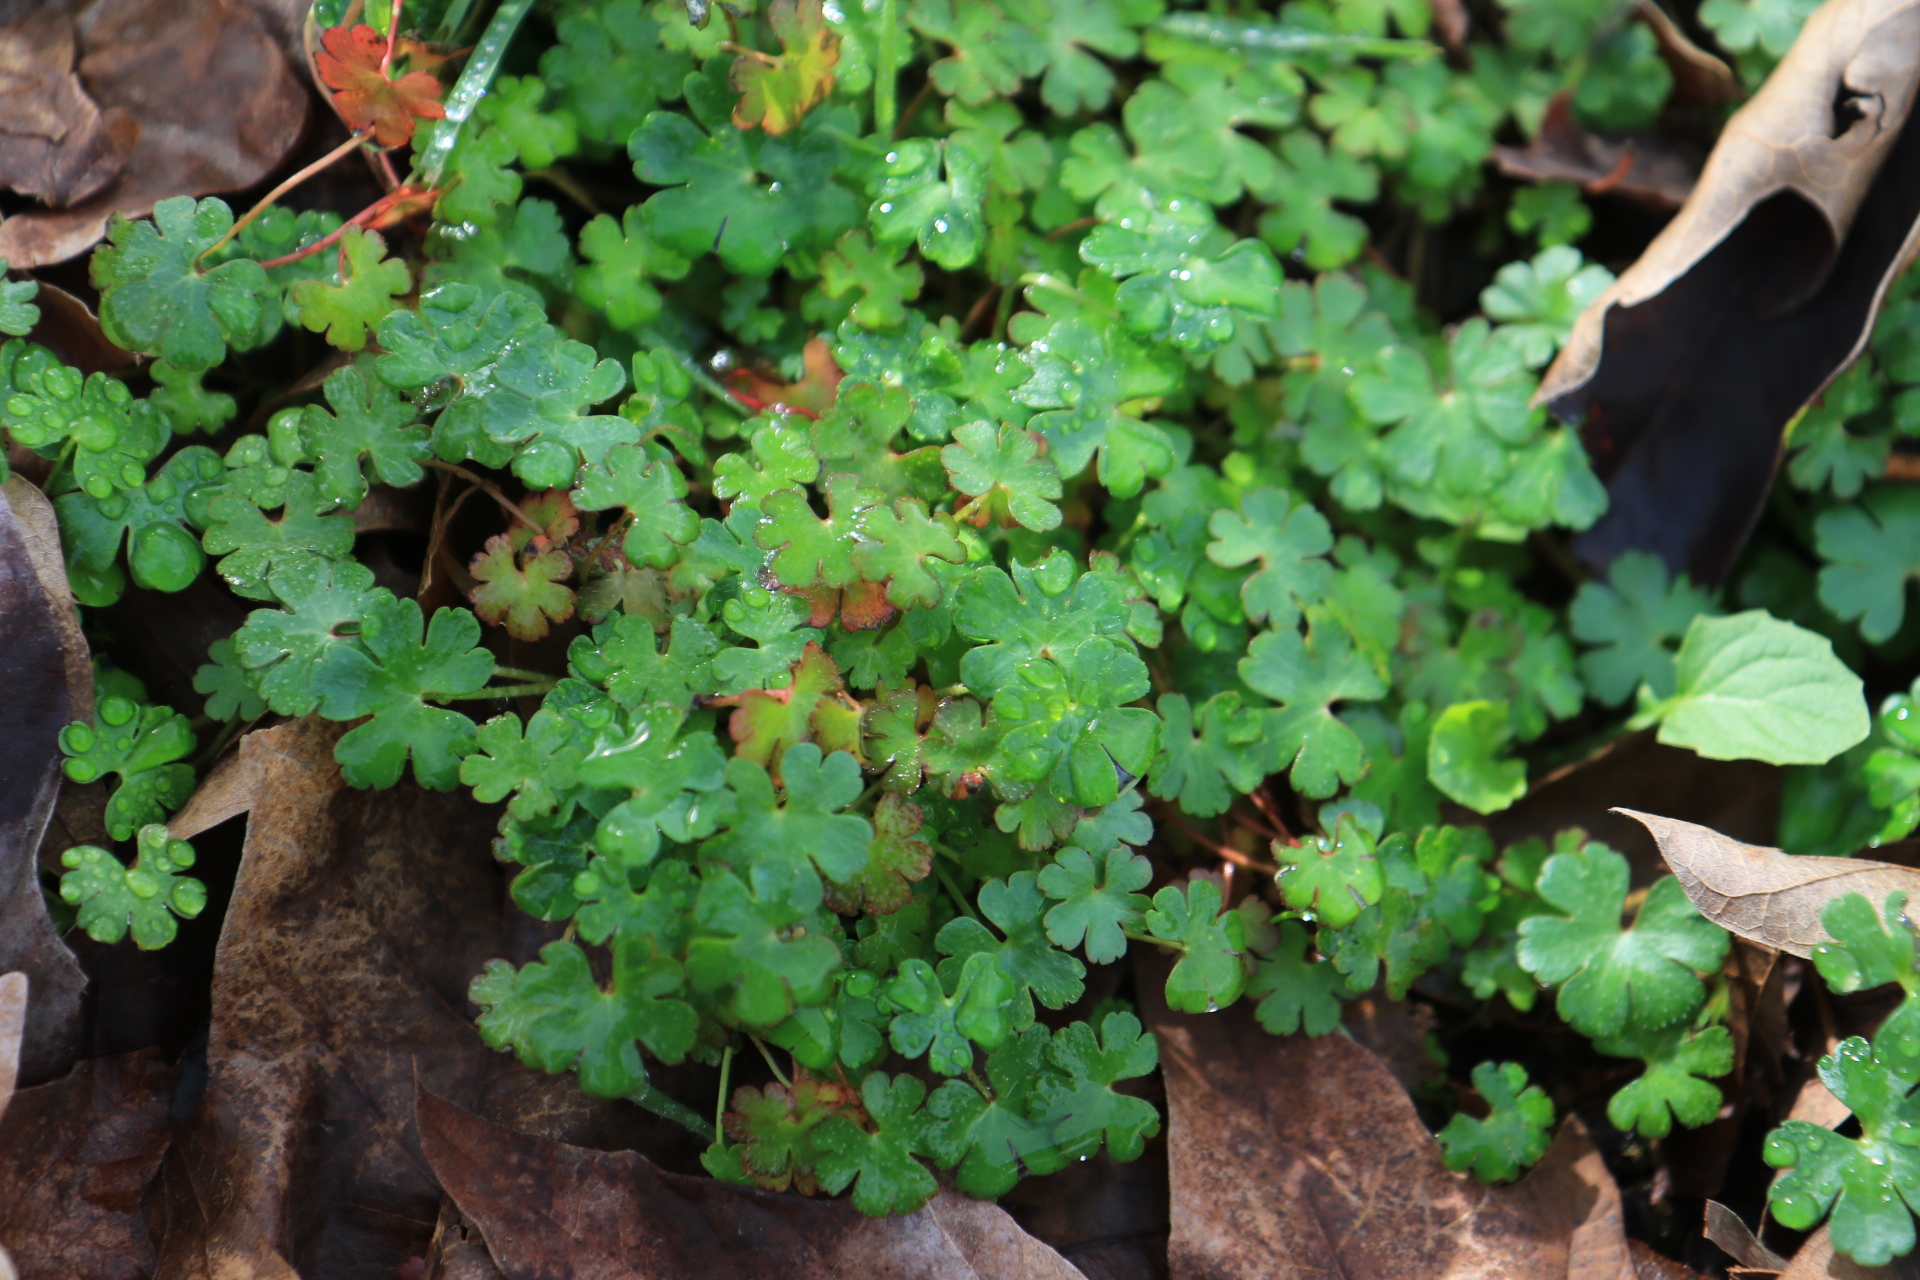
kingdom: Plantae
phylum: Tracheophyta
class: Magnoliopsida
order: Geraniales
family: Geraniaceae
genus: Geranium
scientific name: Geranium lucidum
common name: Shining crane's-bill
